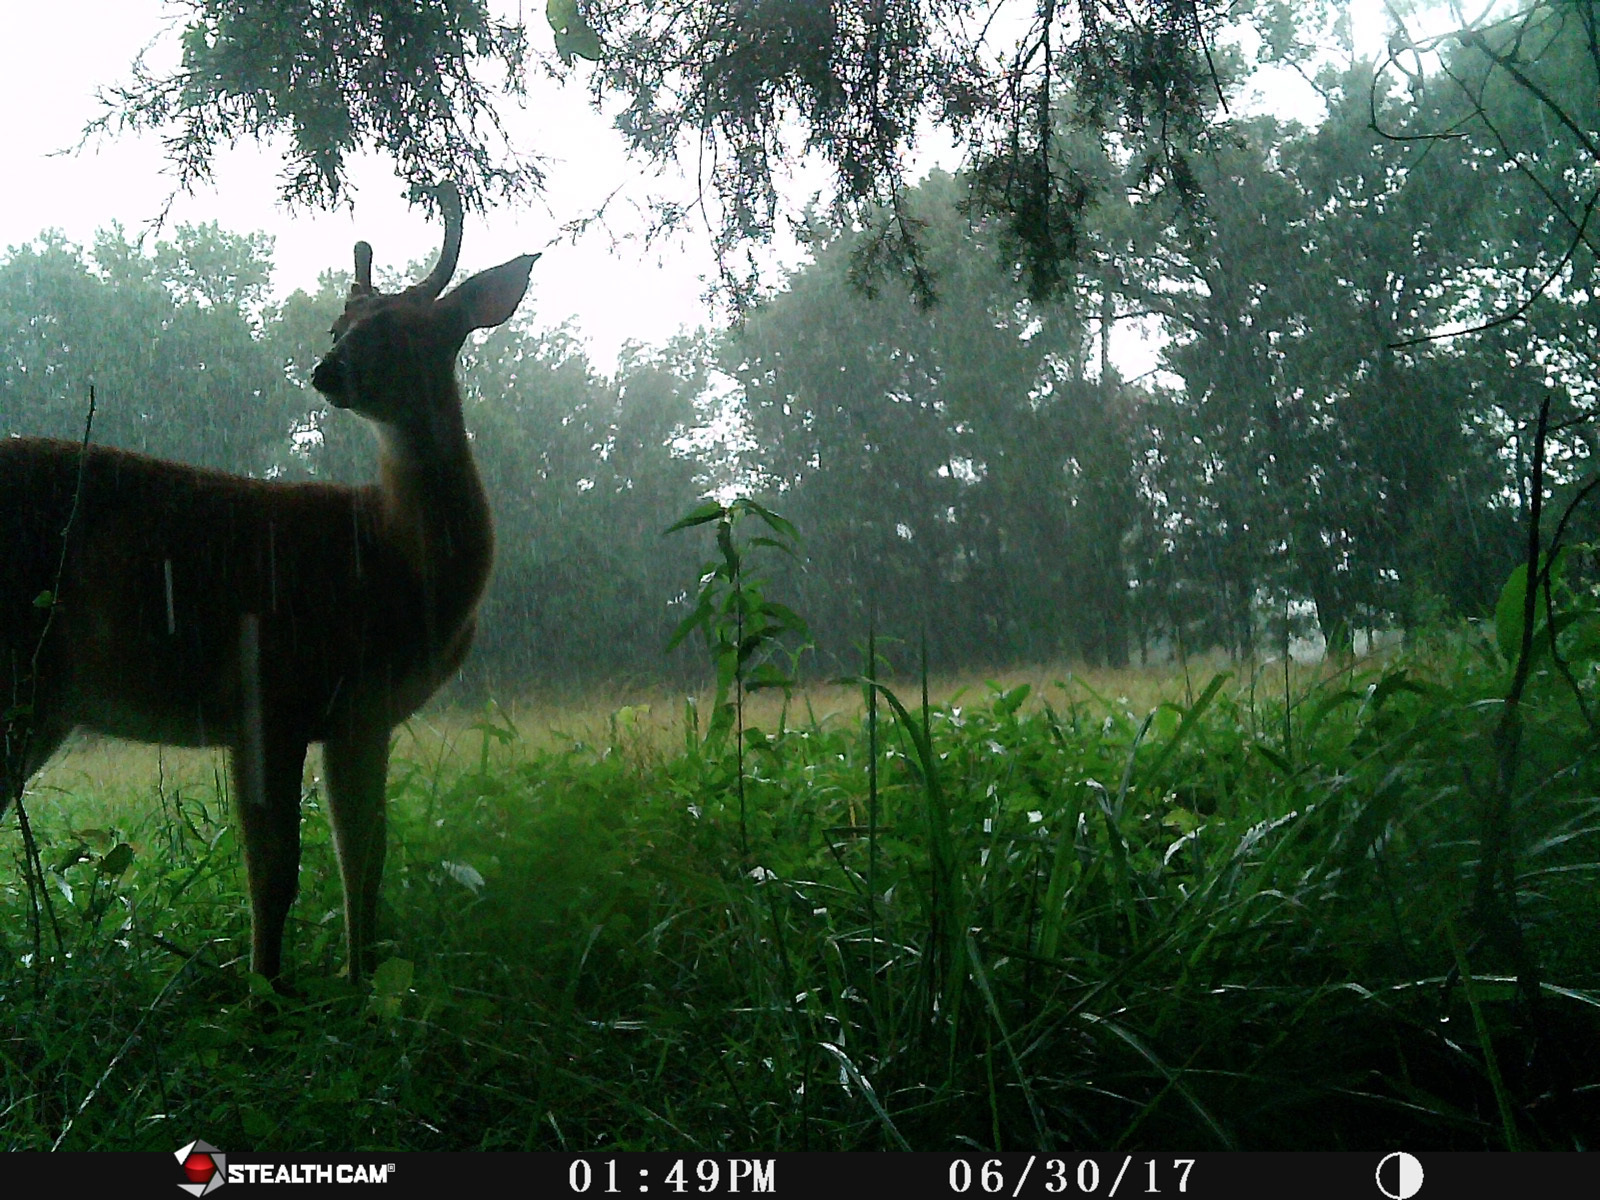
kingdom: Animalia
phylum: Chordata
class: Mammalia
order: Artiodactyla
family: Cervidae
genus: Odocoileus
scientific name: Odocoileus virginianus
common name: White-tailed deer
